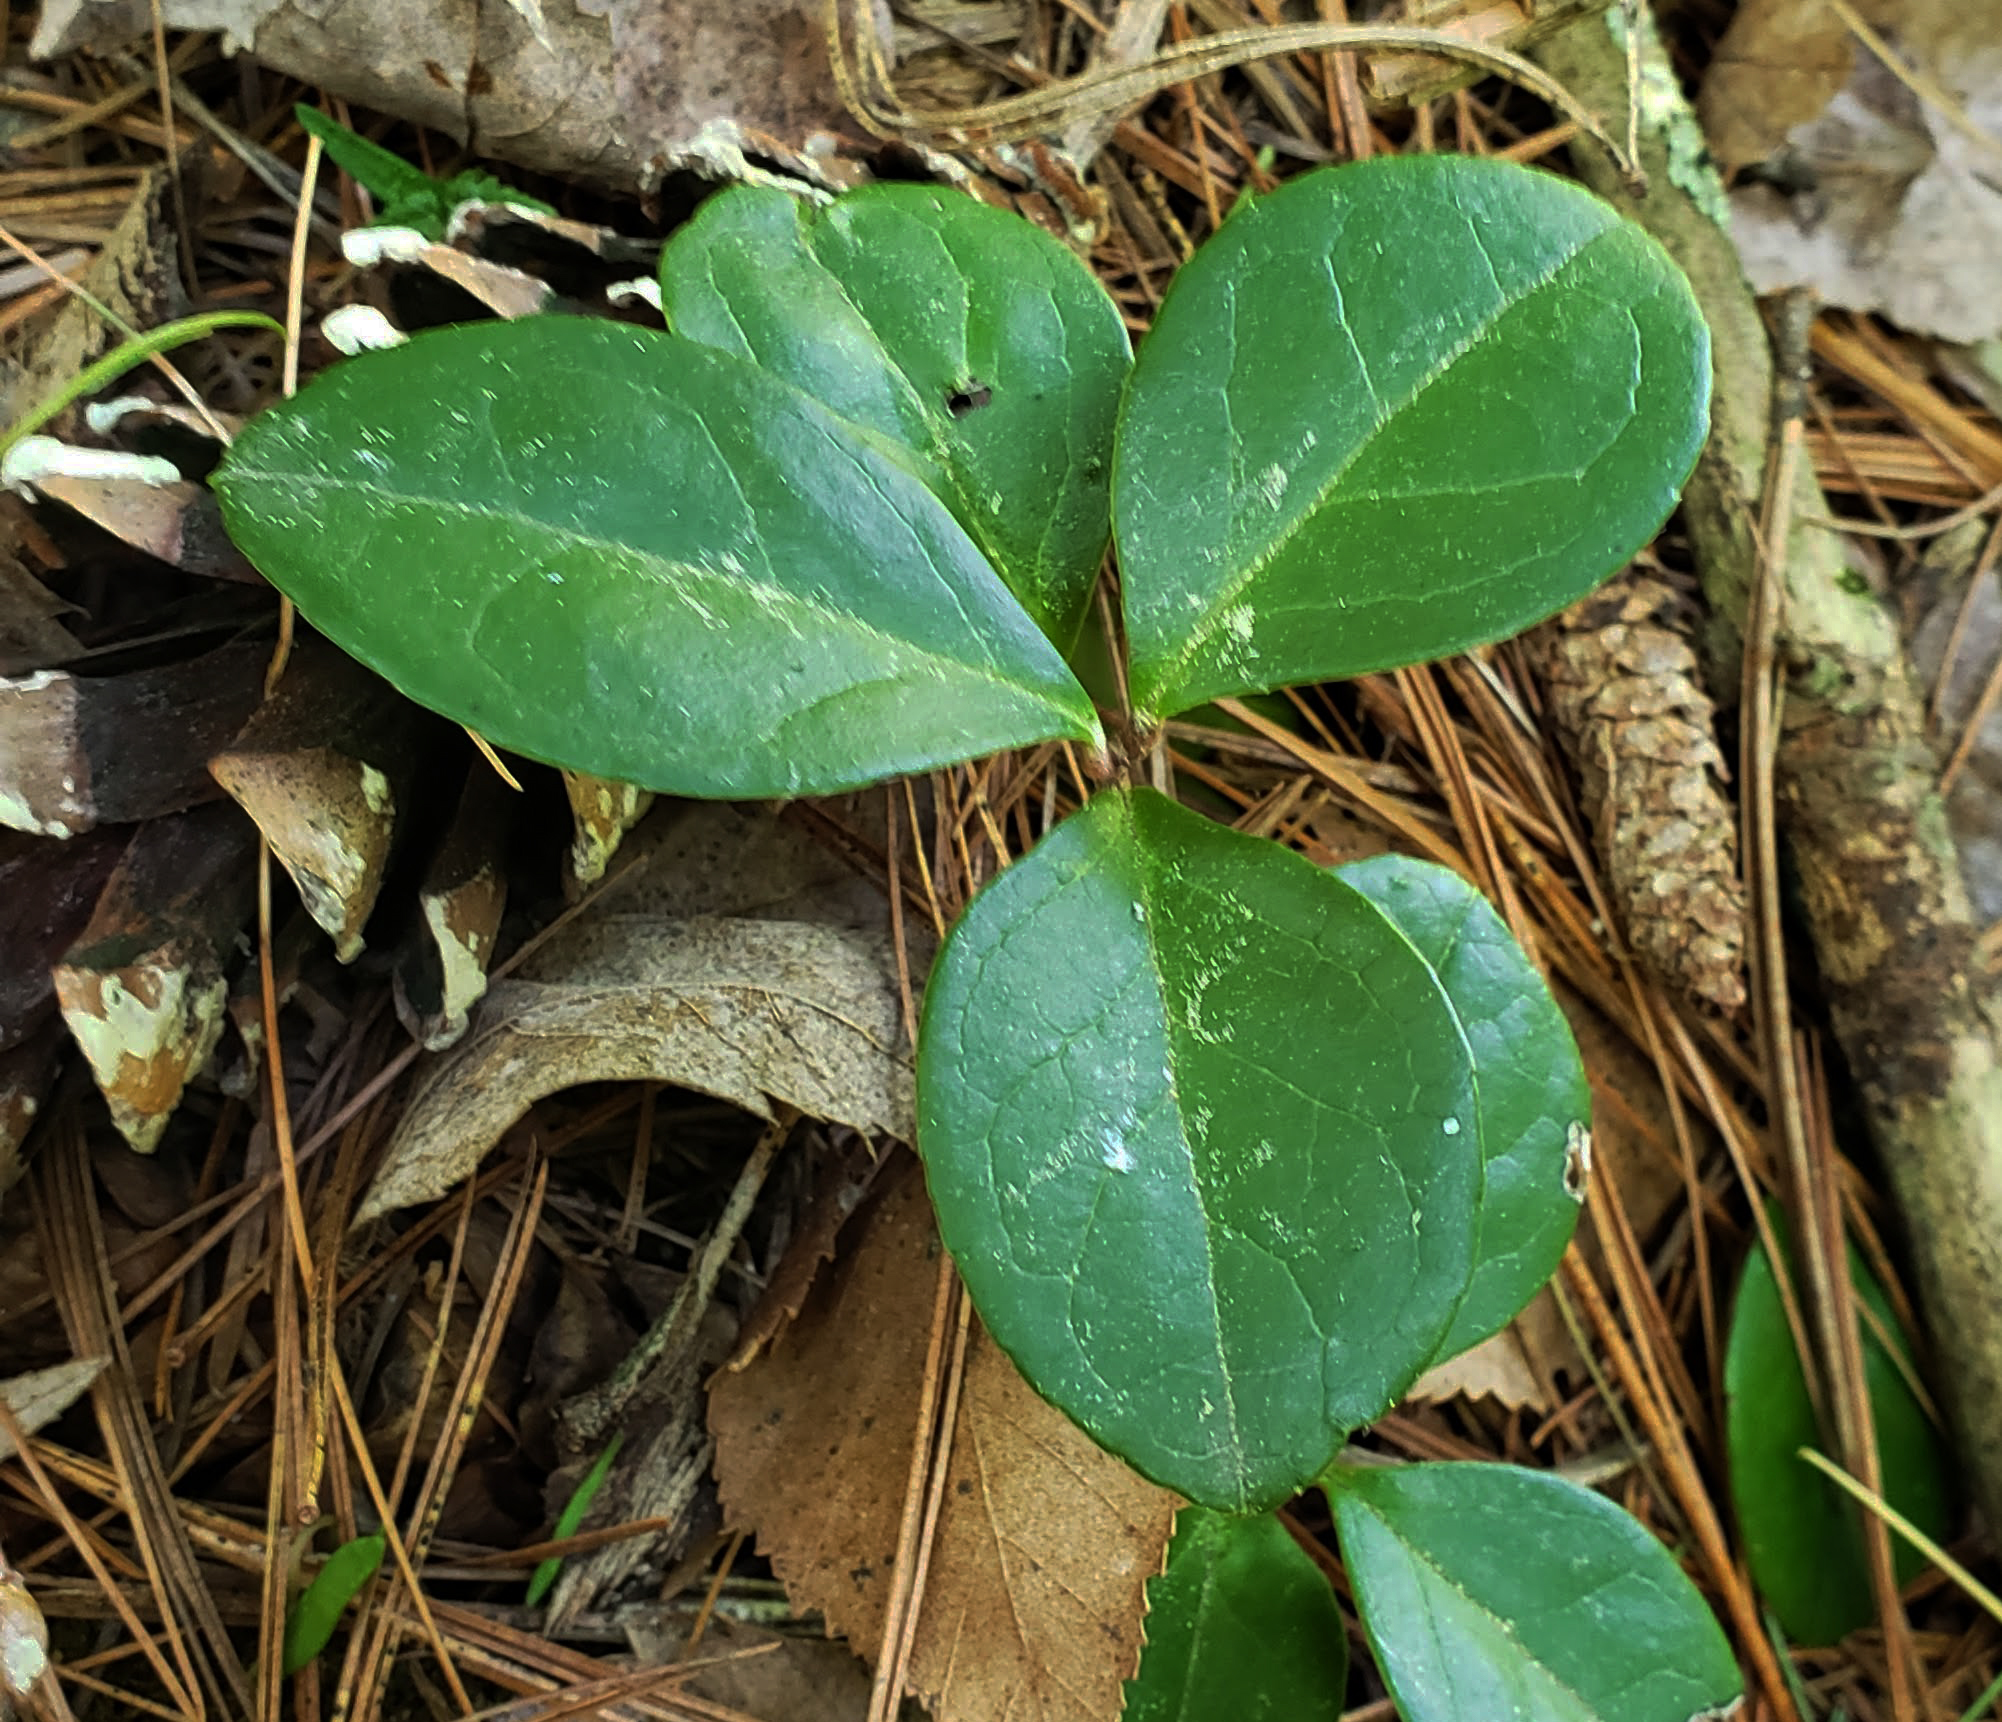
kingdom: Plantae
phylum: Tracheophyta
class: Magnoliopsida
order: Ericales
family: Ericaceae
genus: Gaultheria
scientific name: Gaultheria procumbens
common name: Checkerberry
